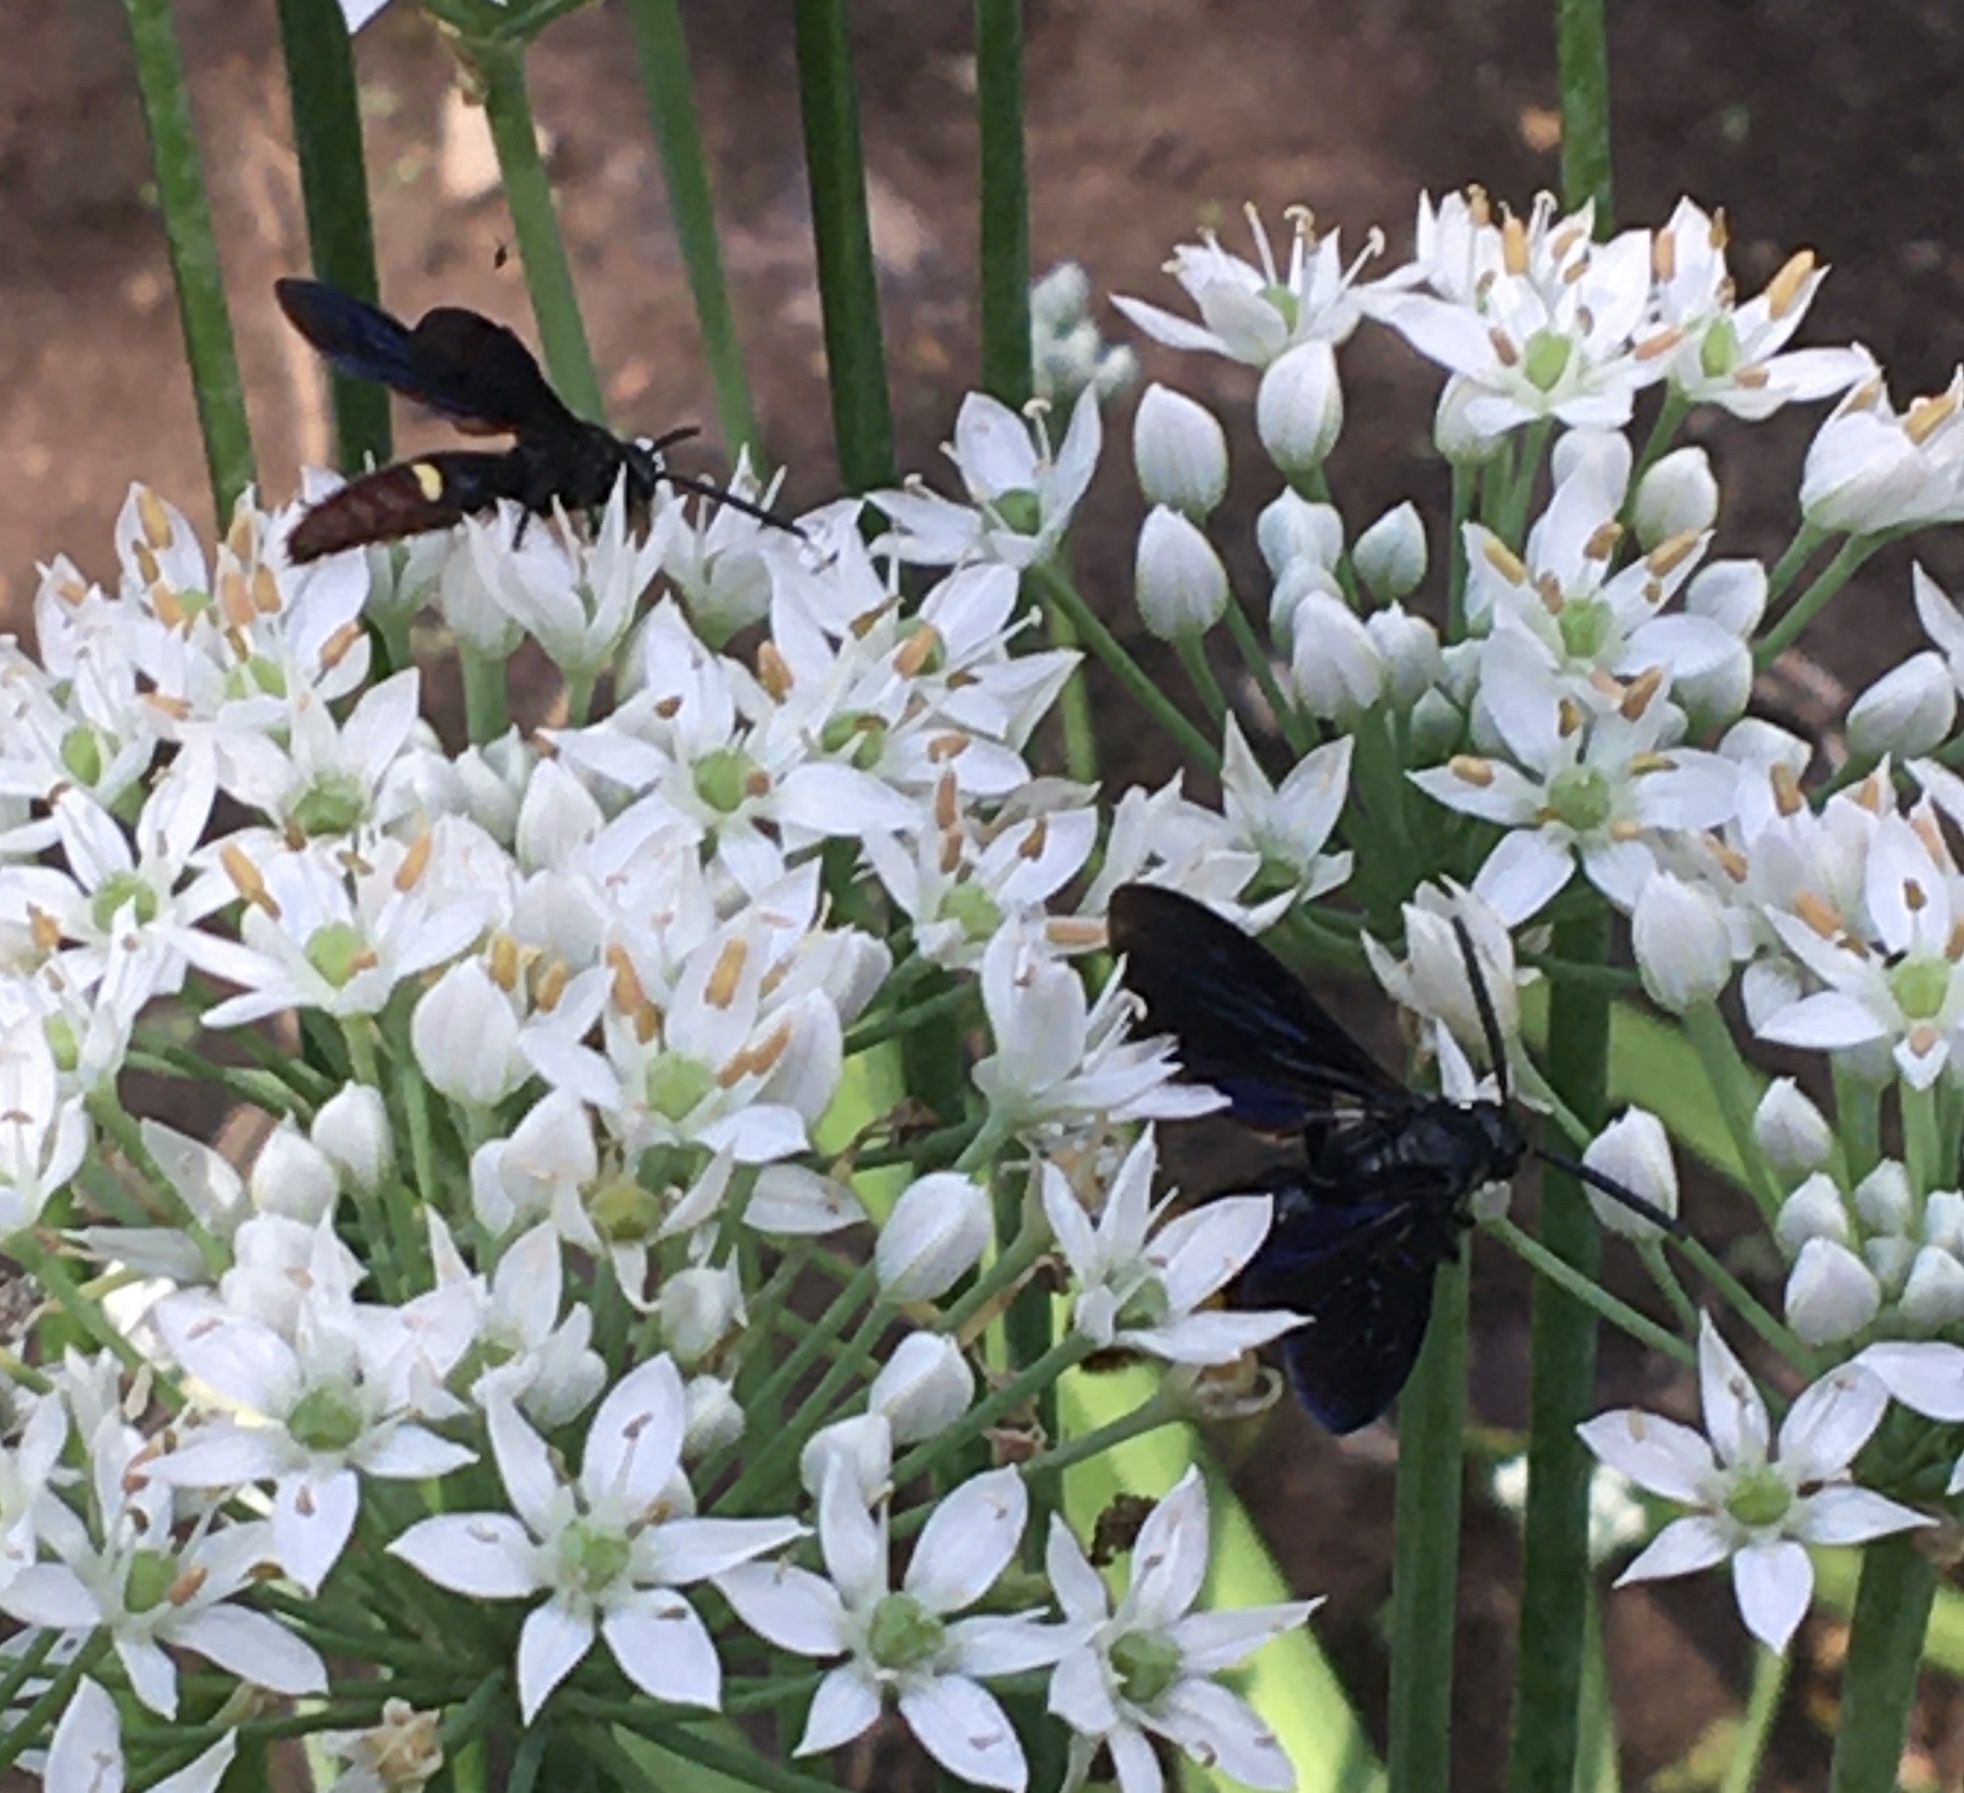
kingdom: Animalia
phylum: Arthropoda
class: Insecta
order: Hymenoptera
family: Scoliidae
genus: Scolia
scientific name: Scolia dubia
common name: Blue-winged scoliid wasp
